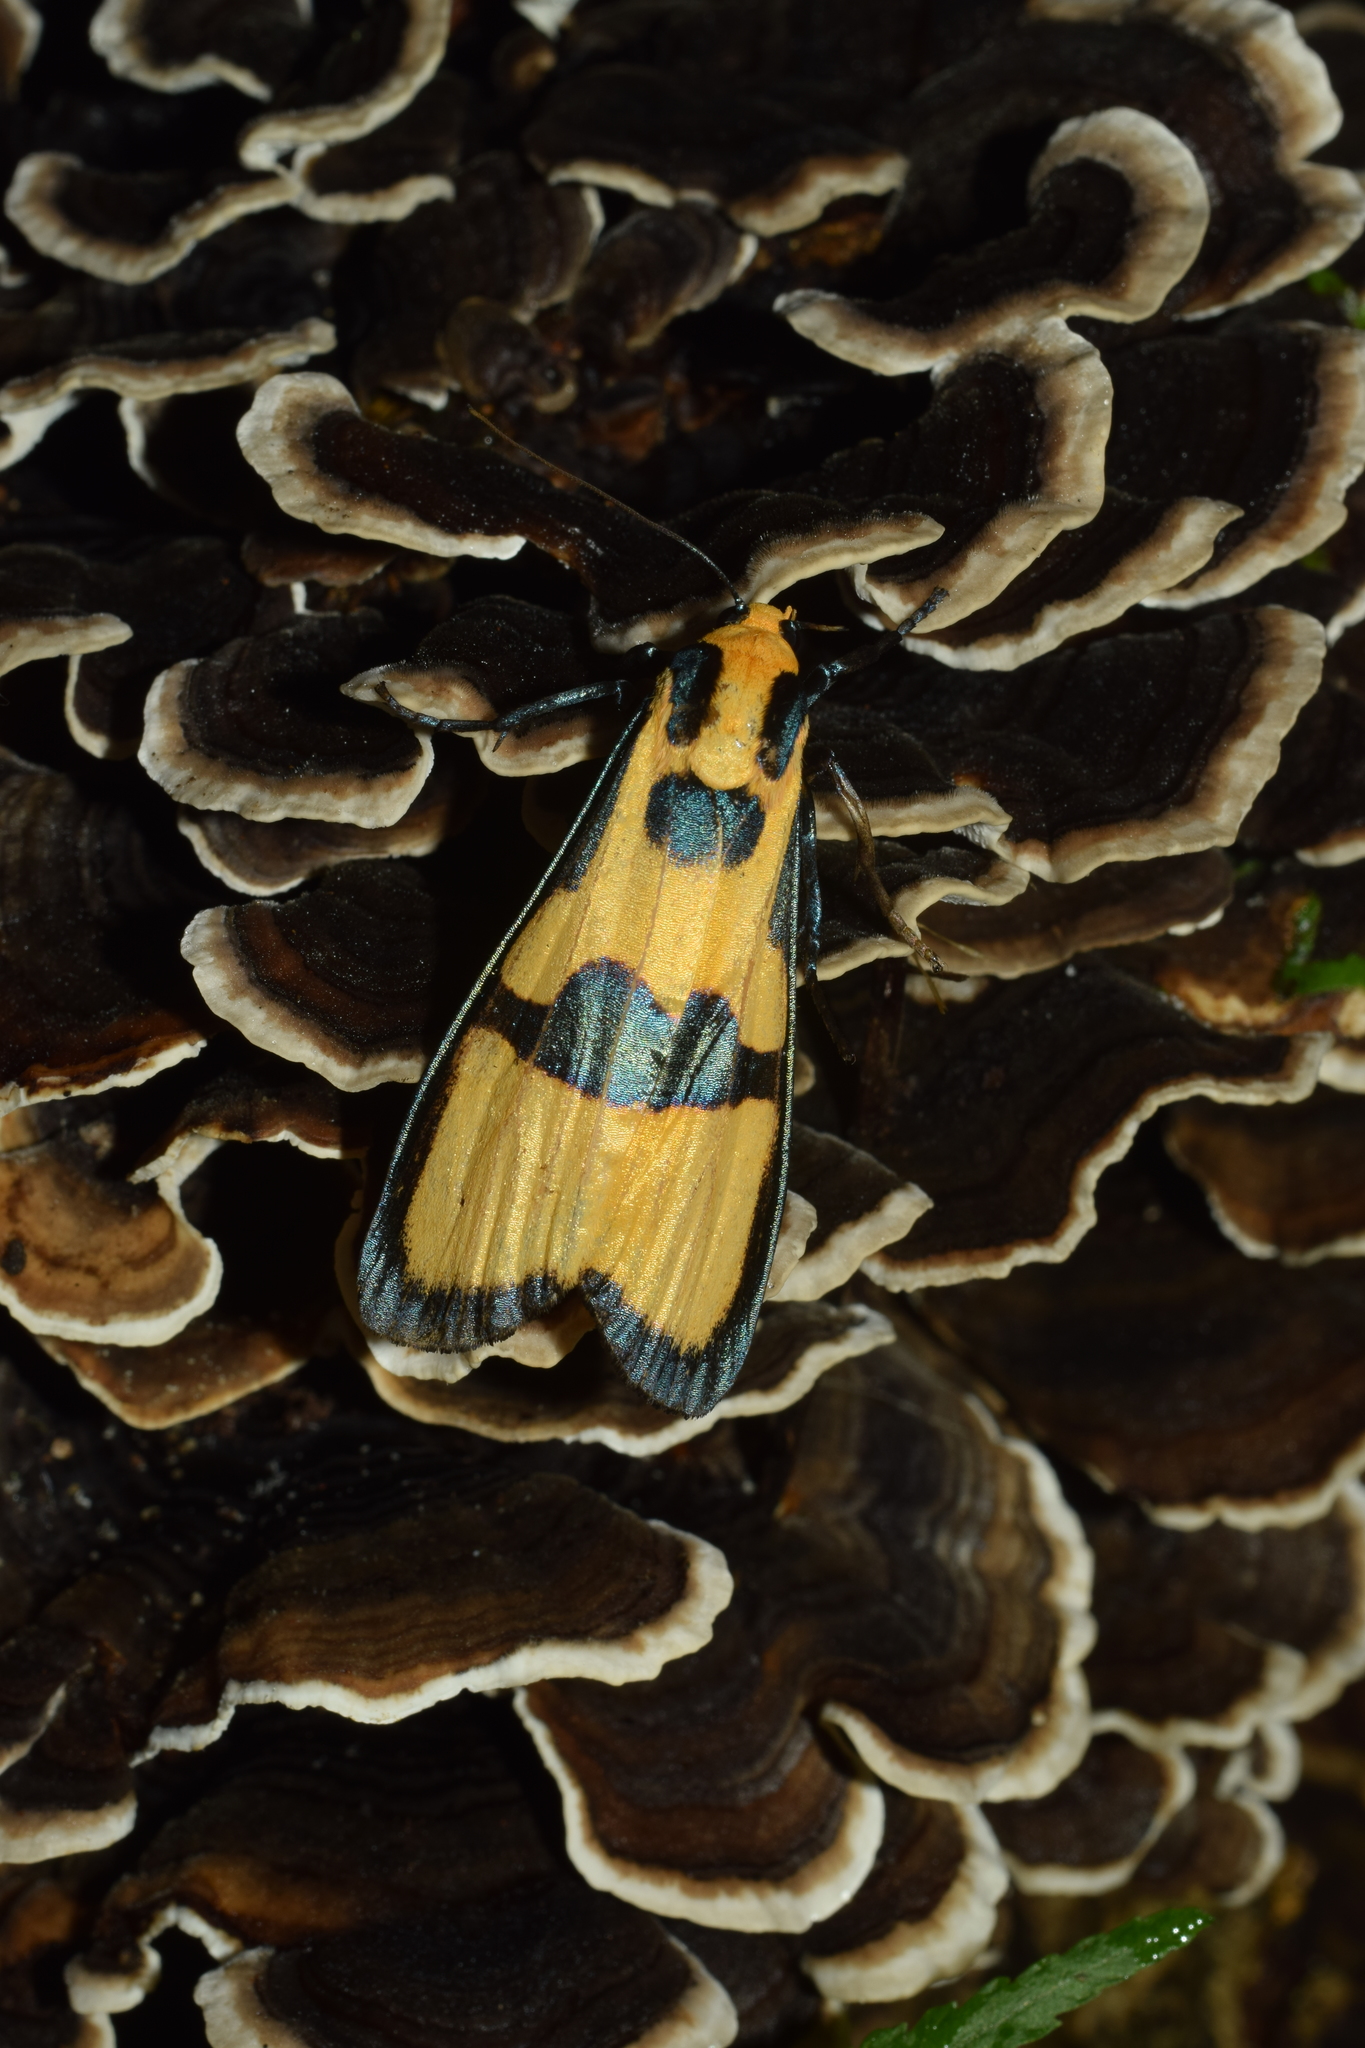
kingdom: Animalia
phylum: Arthropoda
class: Insecta
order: Lepidoptera
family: Erebidae
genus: Chrysaeglia
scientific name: Chrysaeglia magnifica
